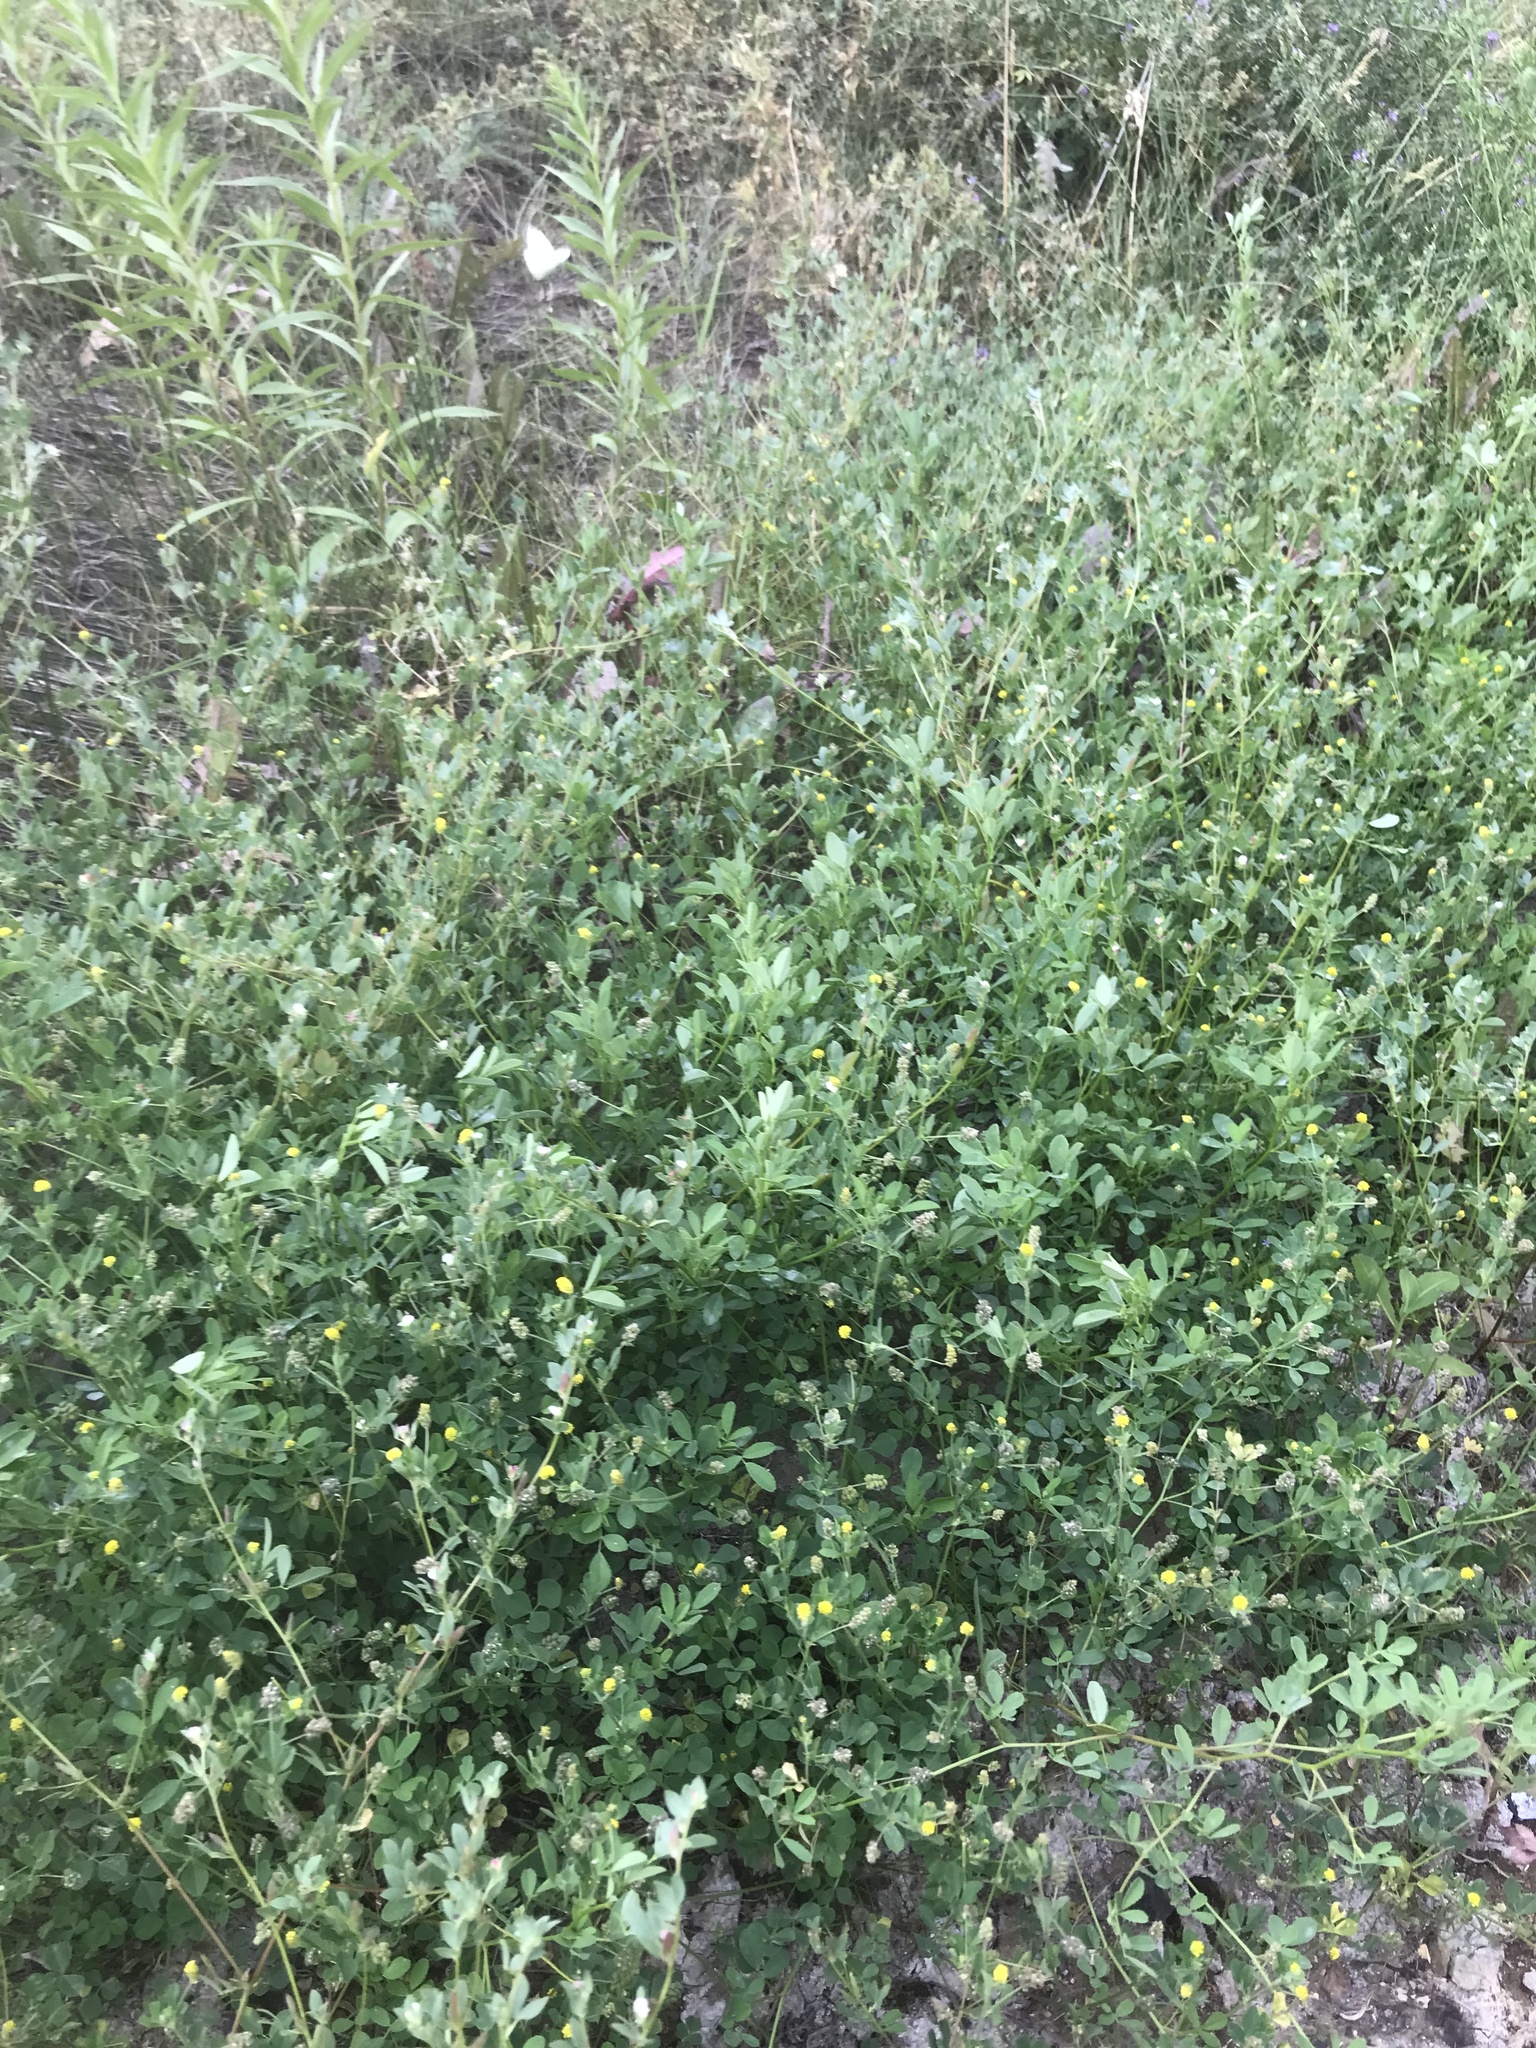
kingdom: Plantae
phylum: Tracheophyta
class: Magnoliopsida
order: Fabales
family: Fabaceae
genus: Medicago
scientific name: Medicago lupulina
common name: Black medick
